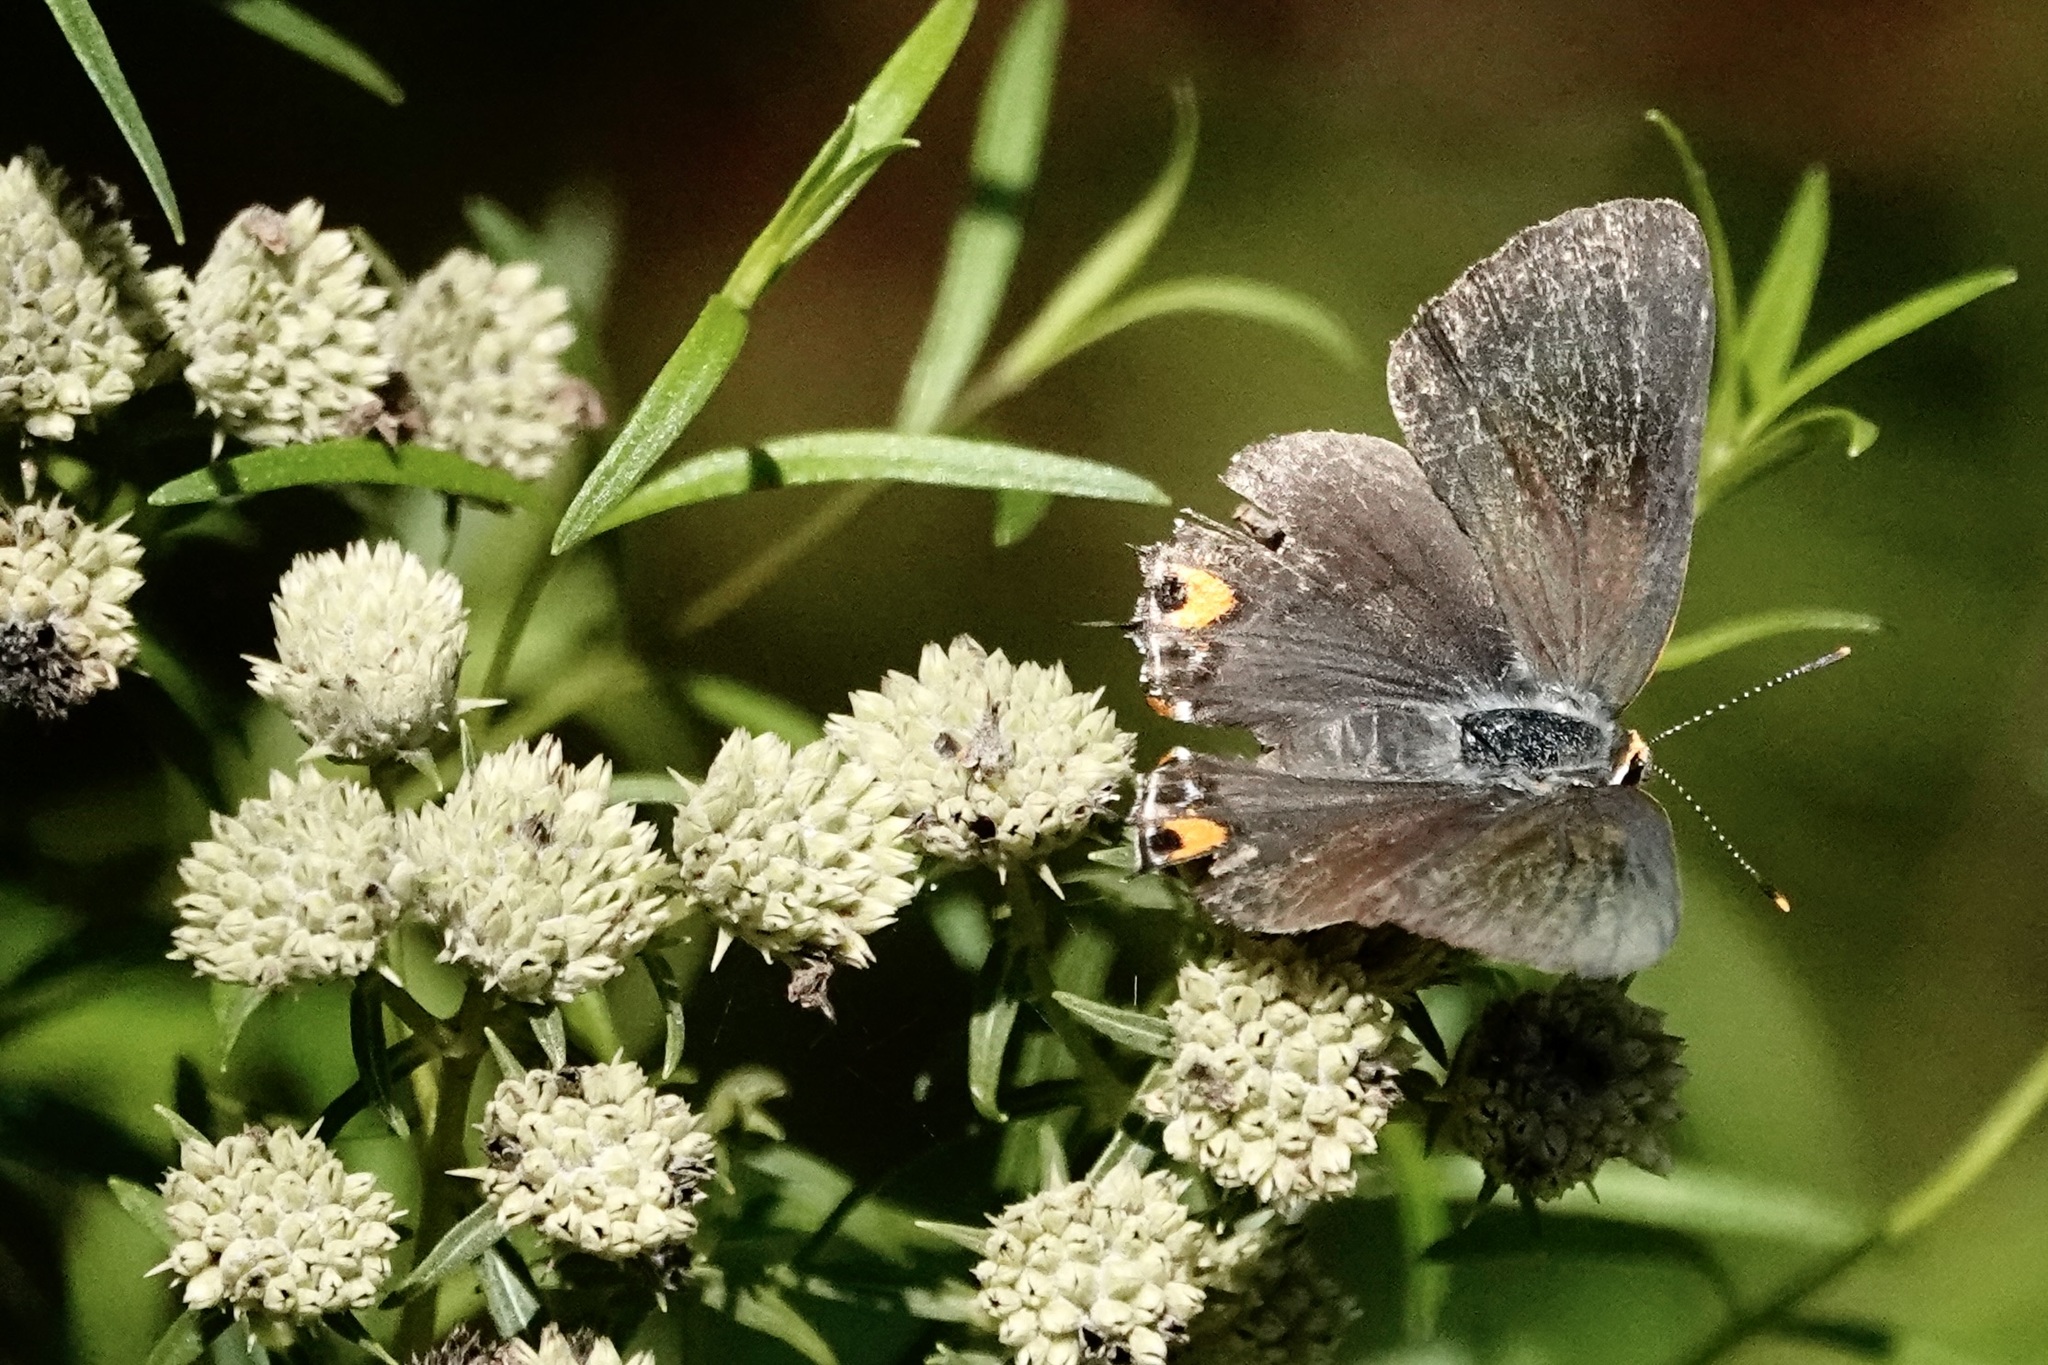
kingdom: Animalia
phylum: Arthropoda
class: Insecta
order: Lepidoptera
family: Lycaenidae
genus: Strymon
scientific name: Strymon melinus
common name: Gray hairstreak
